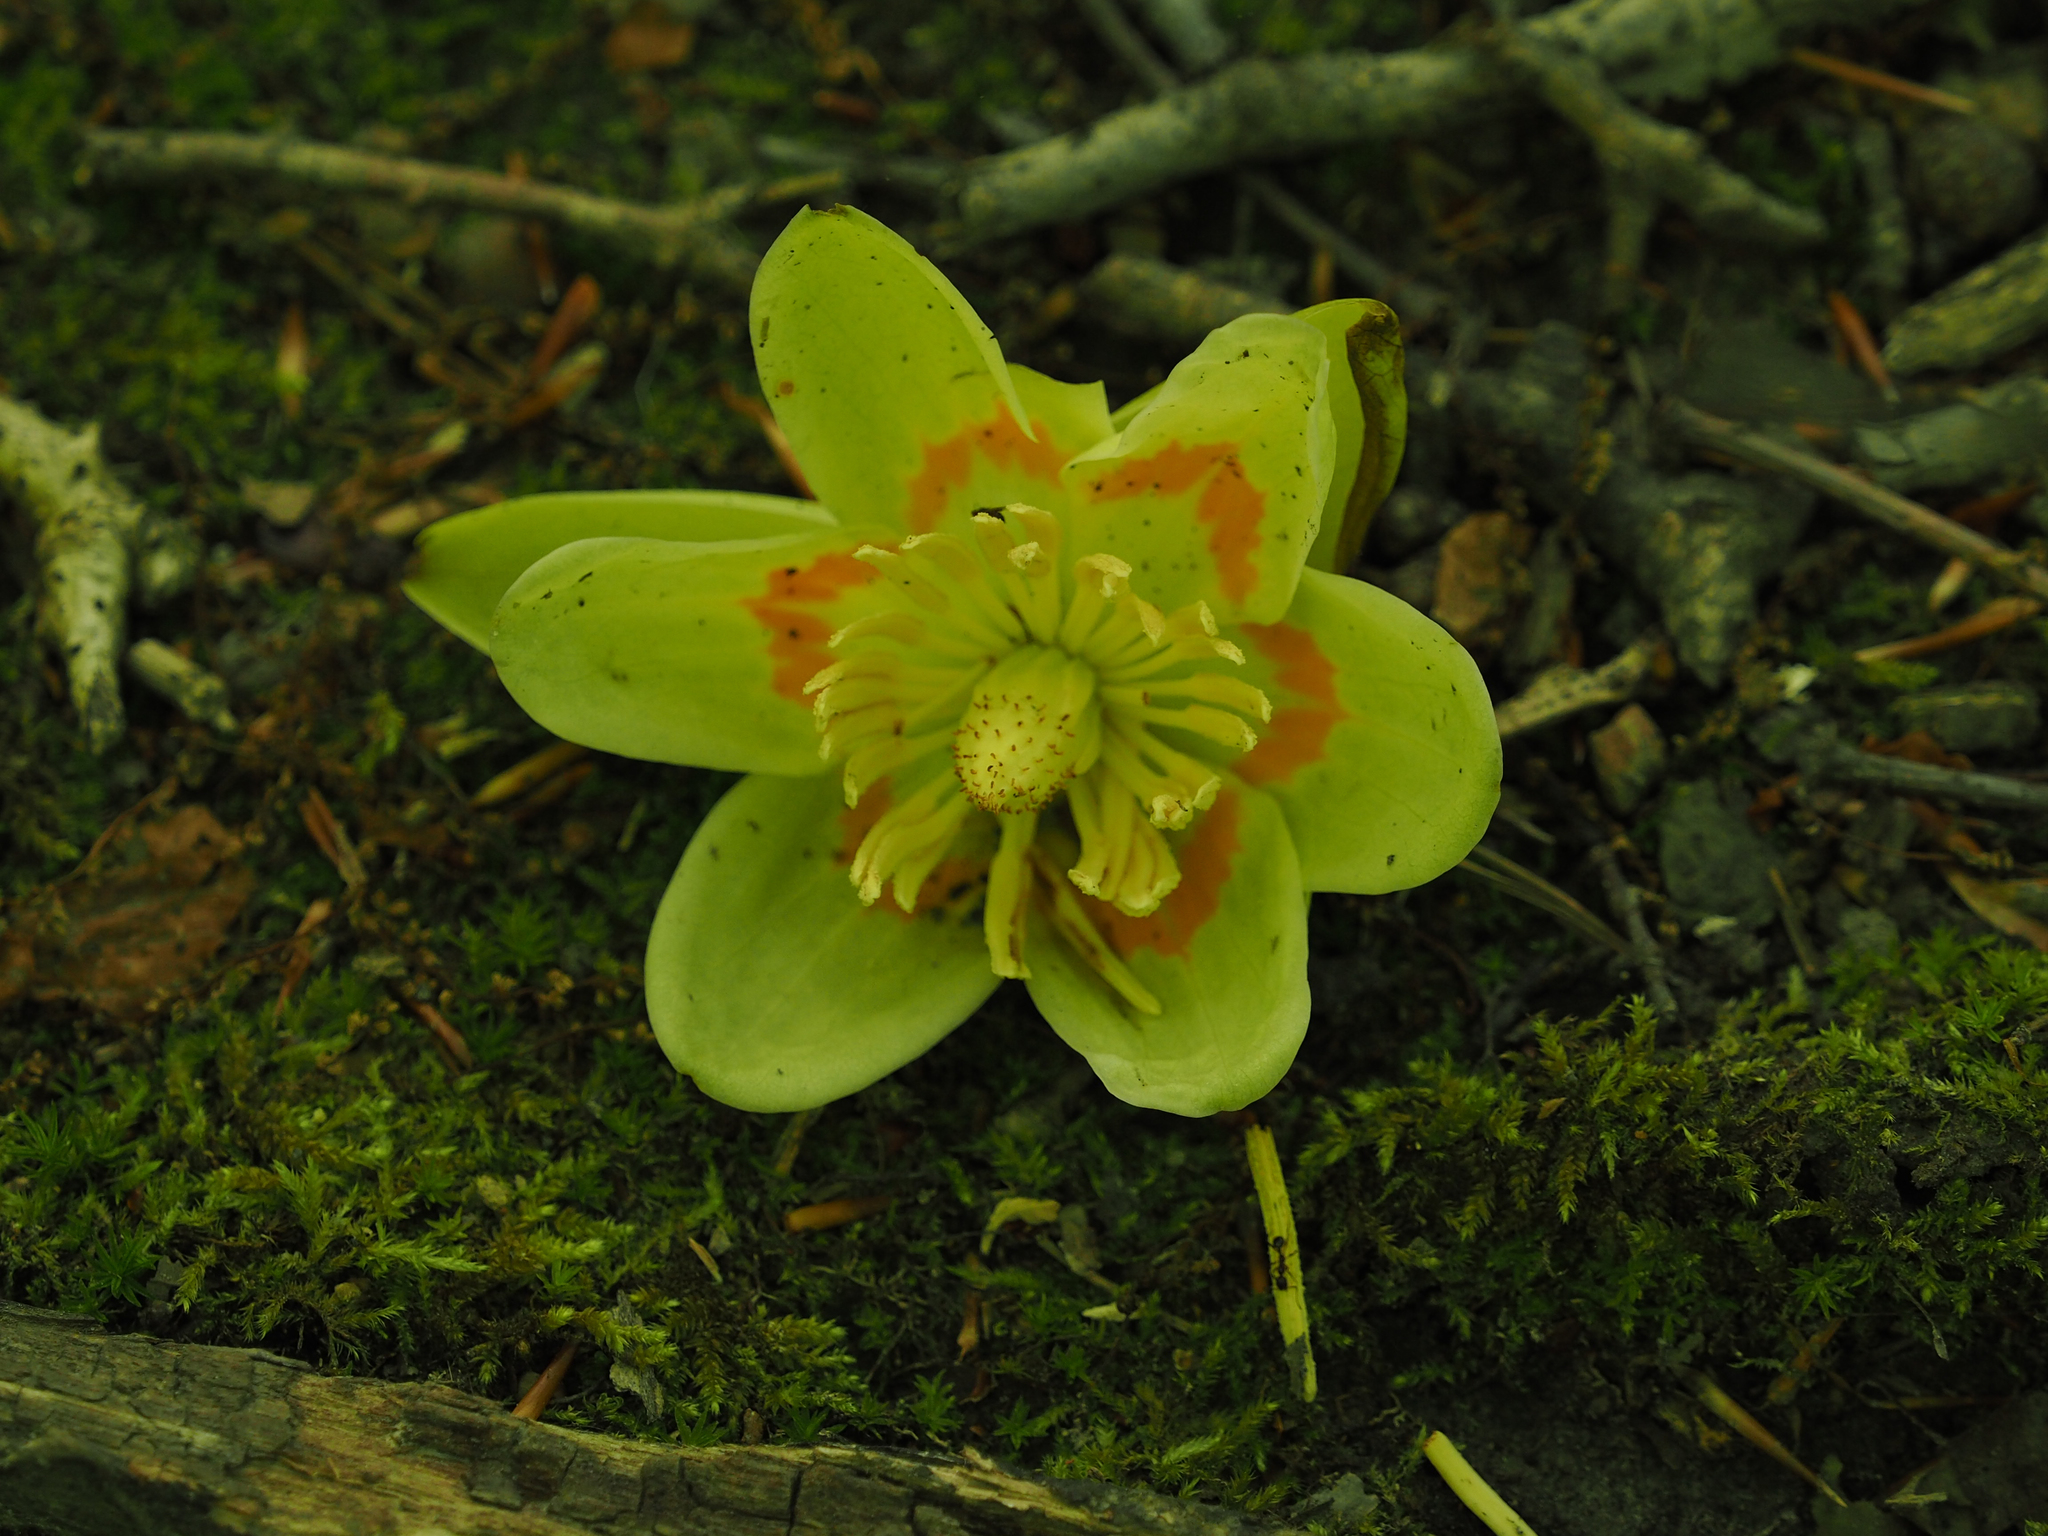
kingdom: Plantae
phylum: Tracheophyta
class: Magnoliopsida
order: Magnoliales
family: Magnoliaceae
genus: Liriodendron
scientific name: Liriodendron tulipifera
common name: Tulip tree
